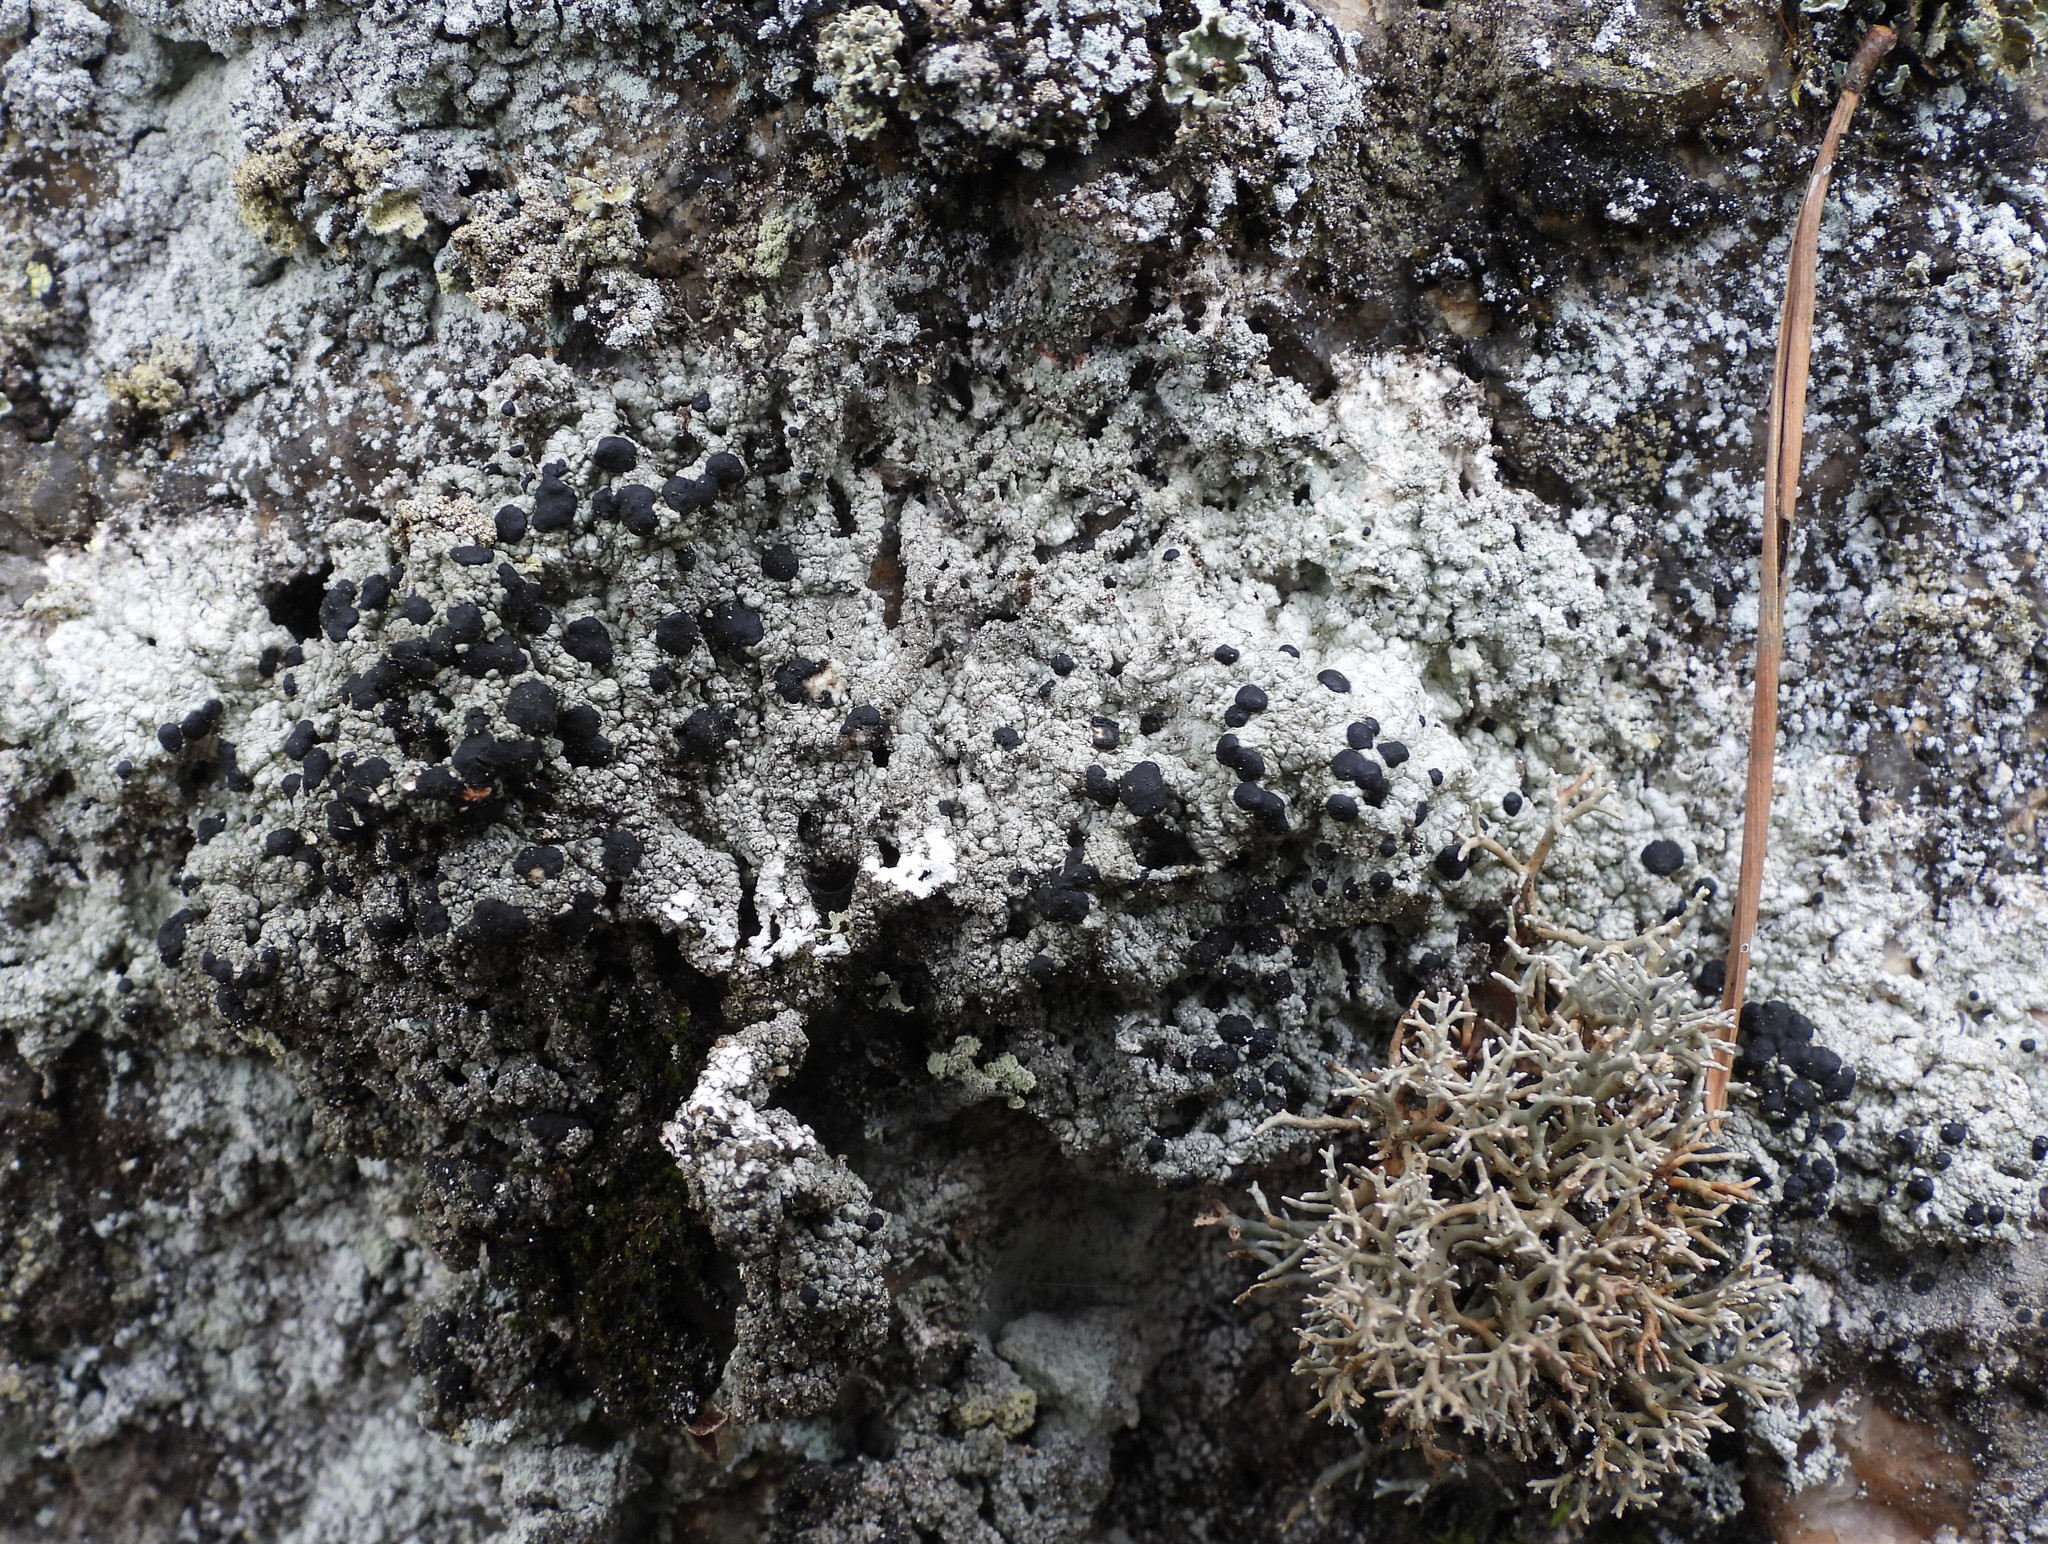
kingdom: Fungi
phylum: Ascomycota
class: Lecanoromycetes
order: Lecanorales
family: Tephromelataceae
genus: Mycoblastus
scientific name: Mycoblastus sanguinarius
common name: Bloody-heart lichen
